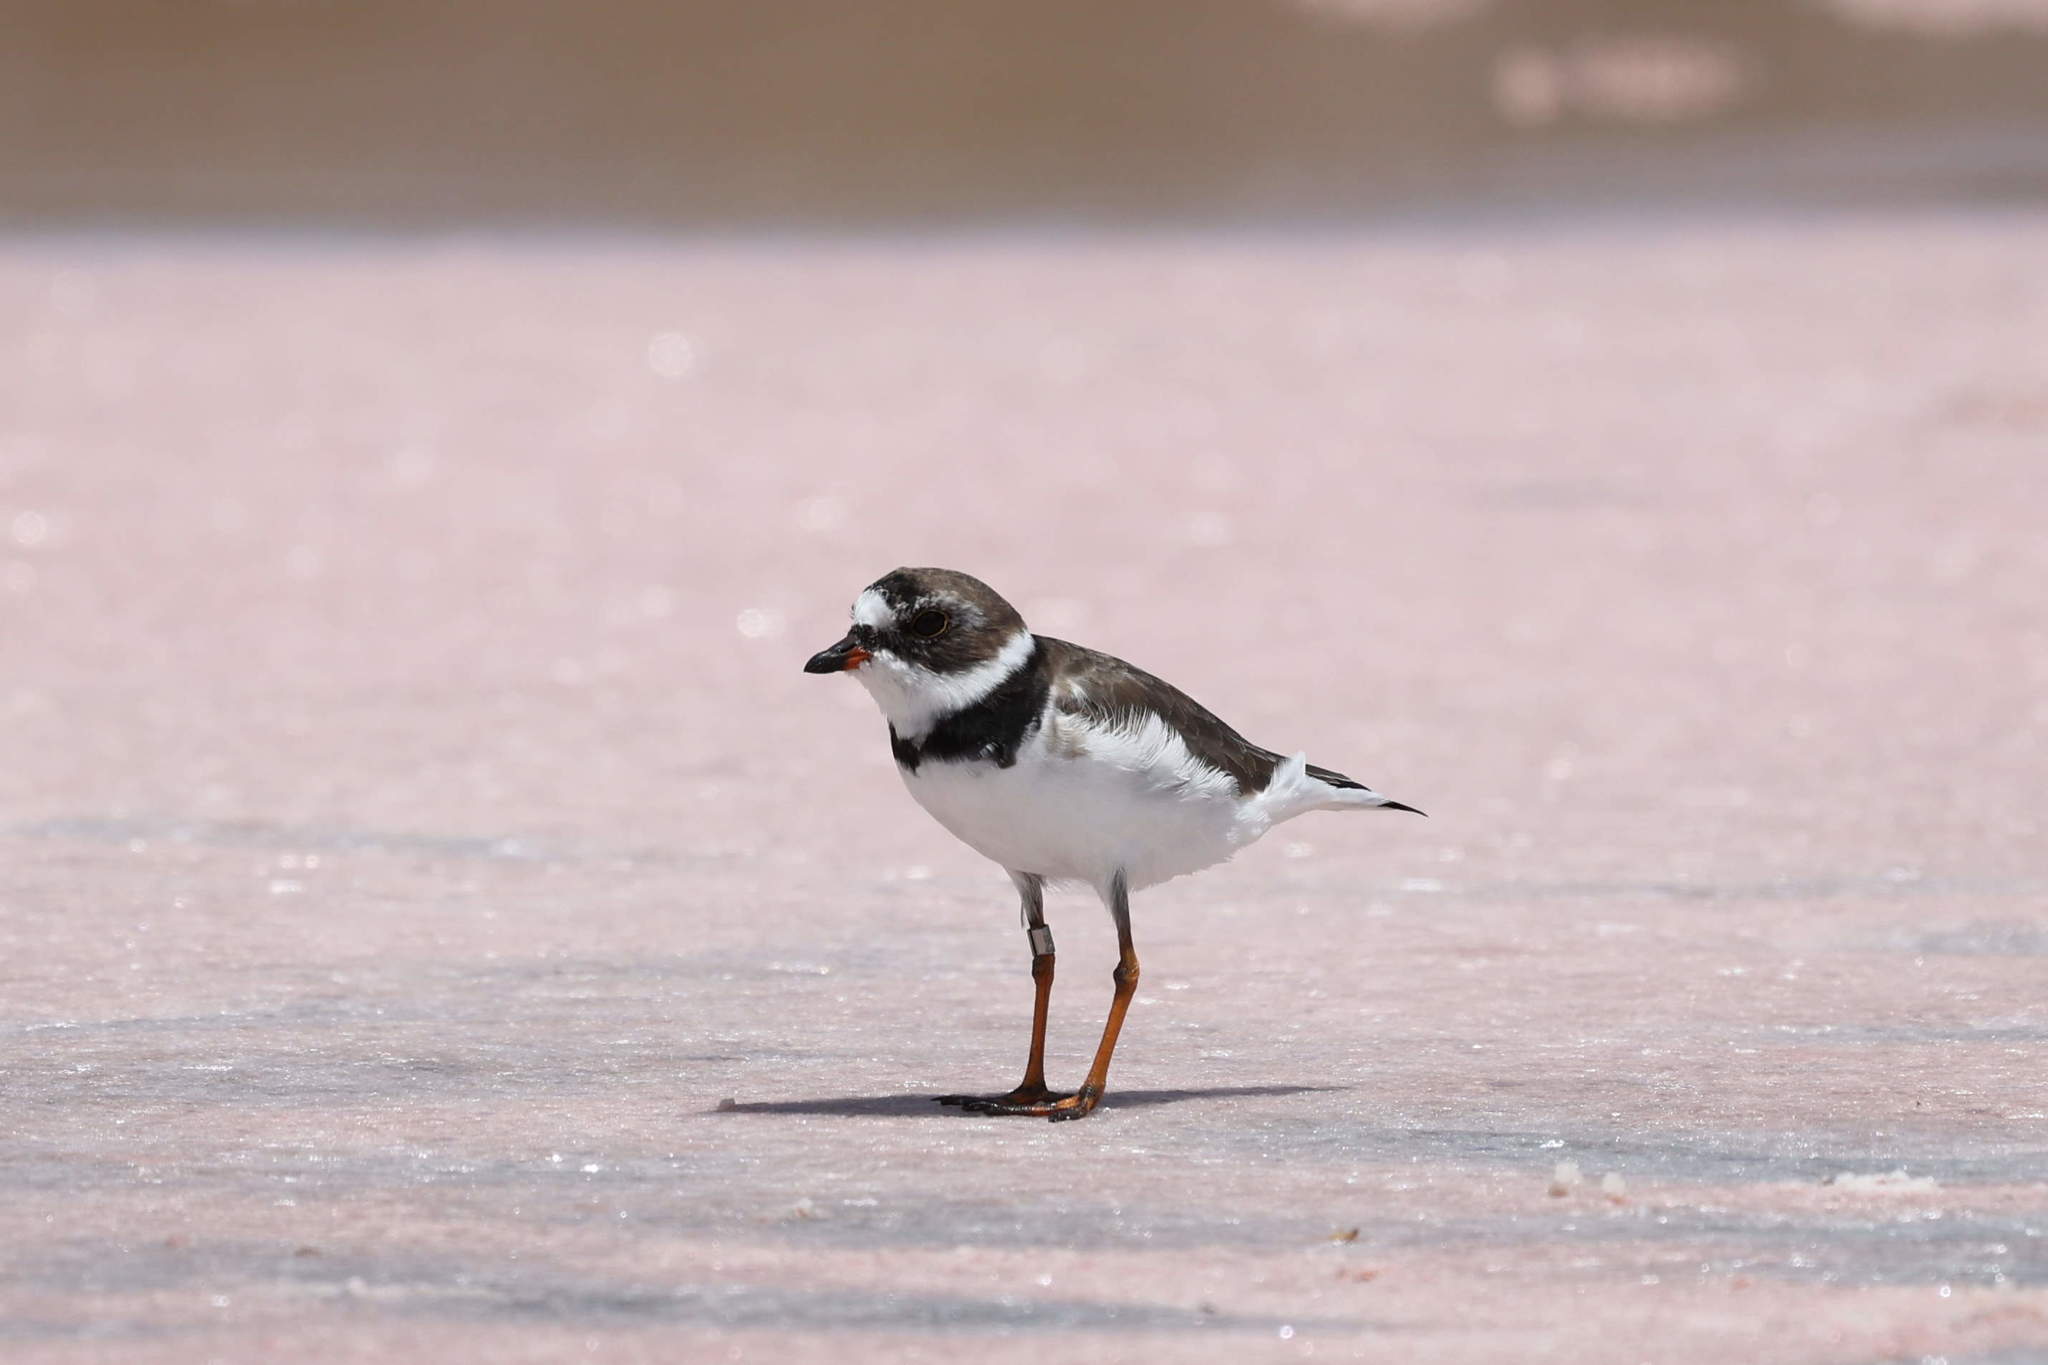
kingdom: Animalia
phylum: Chordata
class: Aves
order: Charadriiformes
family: Charadriidae
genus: Charadrius
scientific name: Charadrius semipalmatus
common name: Semipalmated plover
